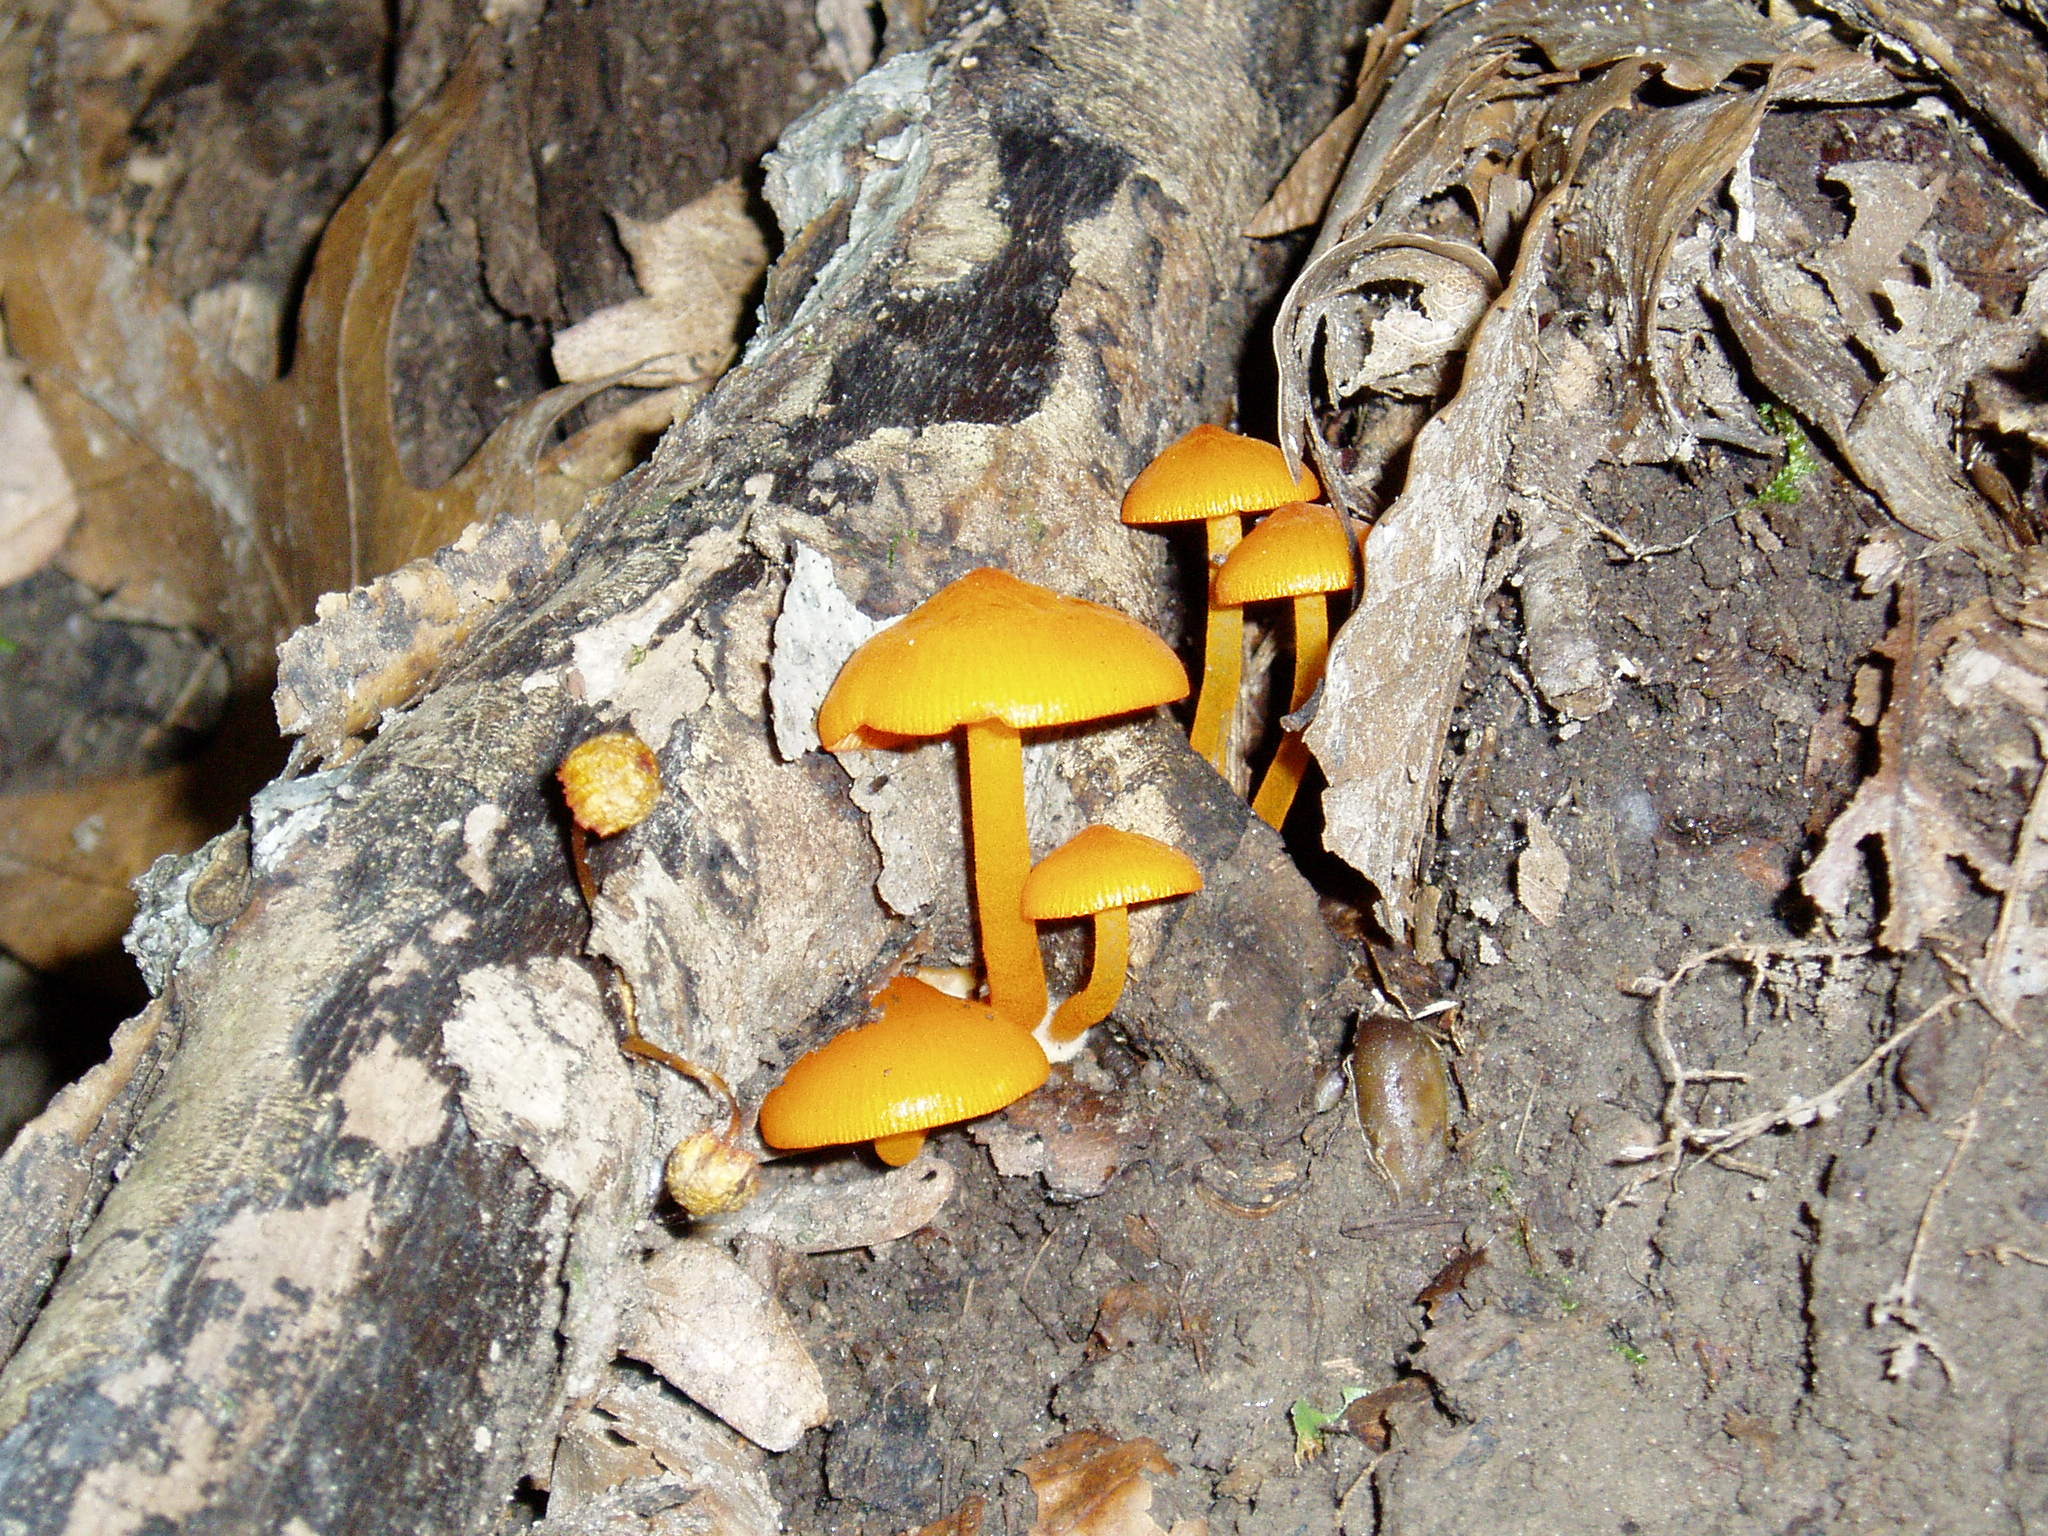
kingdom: Fungi
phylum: Basidiomycota
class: Agaricomycetes
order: Agaricales
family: Mycenaceae
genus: Mycena
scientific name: Mycena leaiana
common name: Orange mycena
